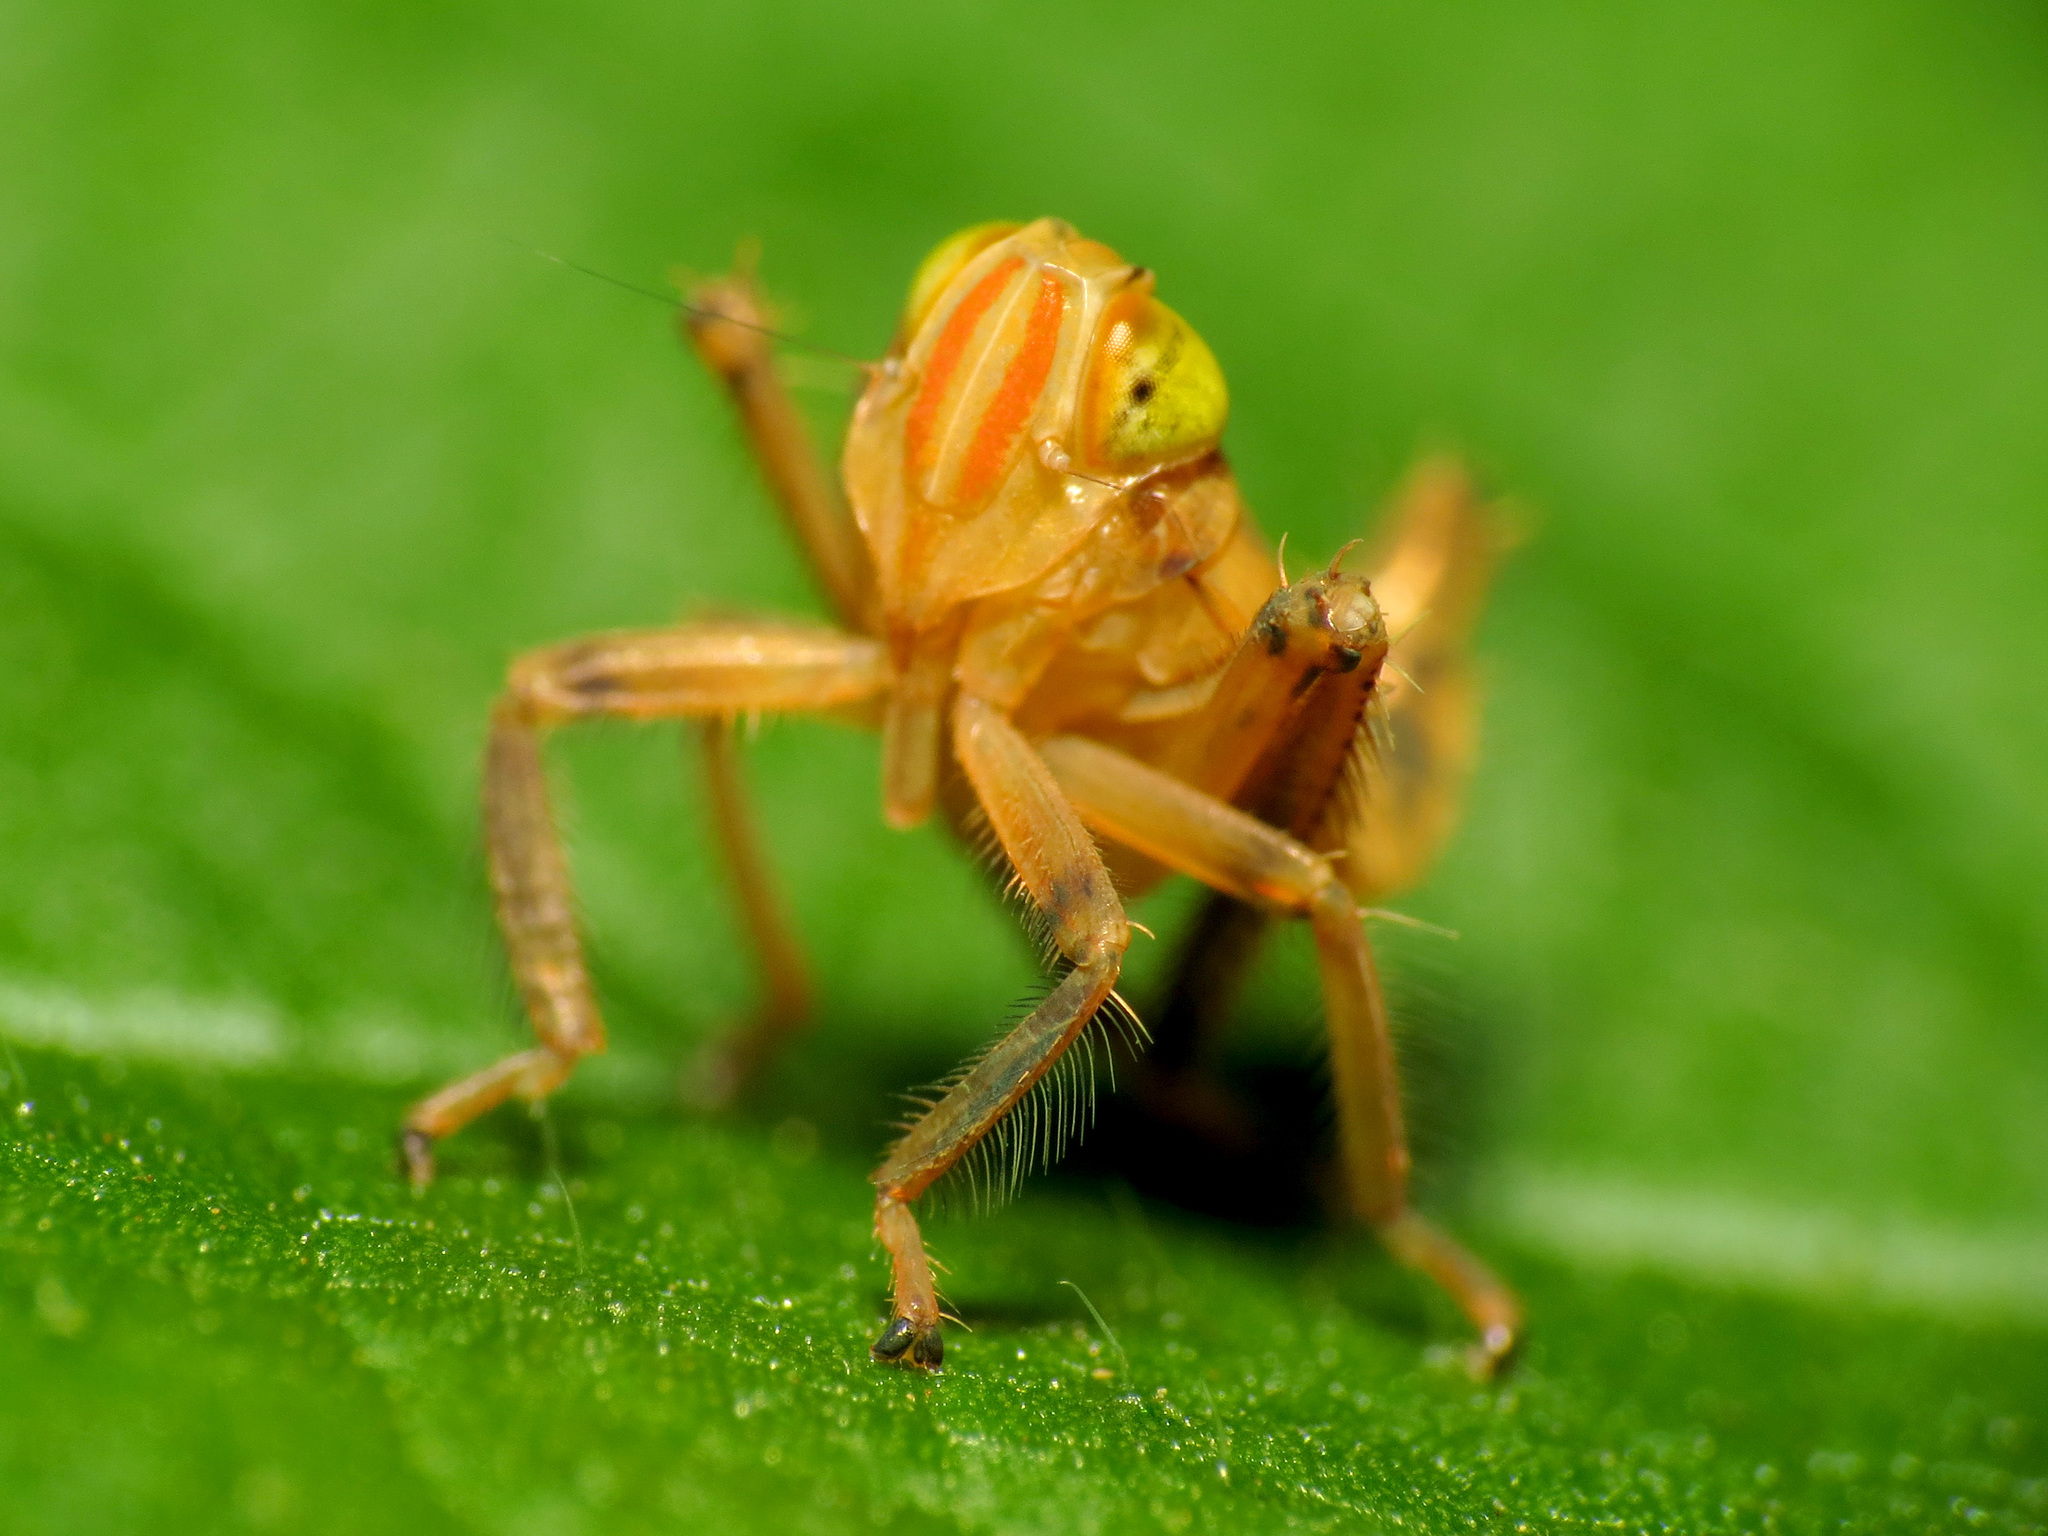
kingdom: Animalia
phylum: Arthropoda
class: Insecta
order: Hemiptera
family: Cicadellidae
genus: Jikradia
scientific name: Jikradia olitoria
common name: Coppery leafhopper
